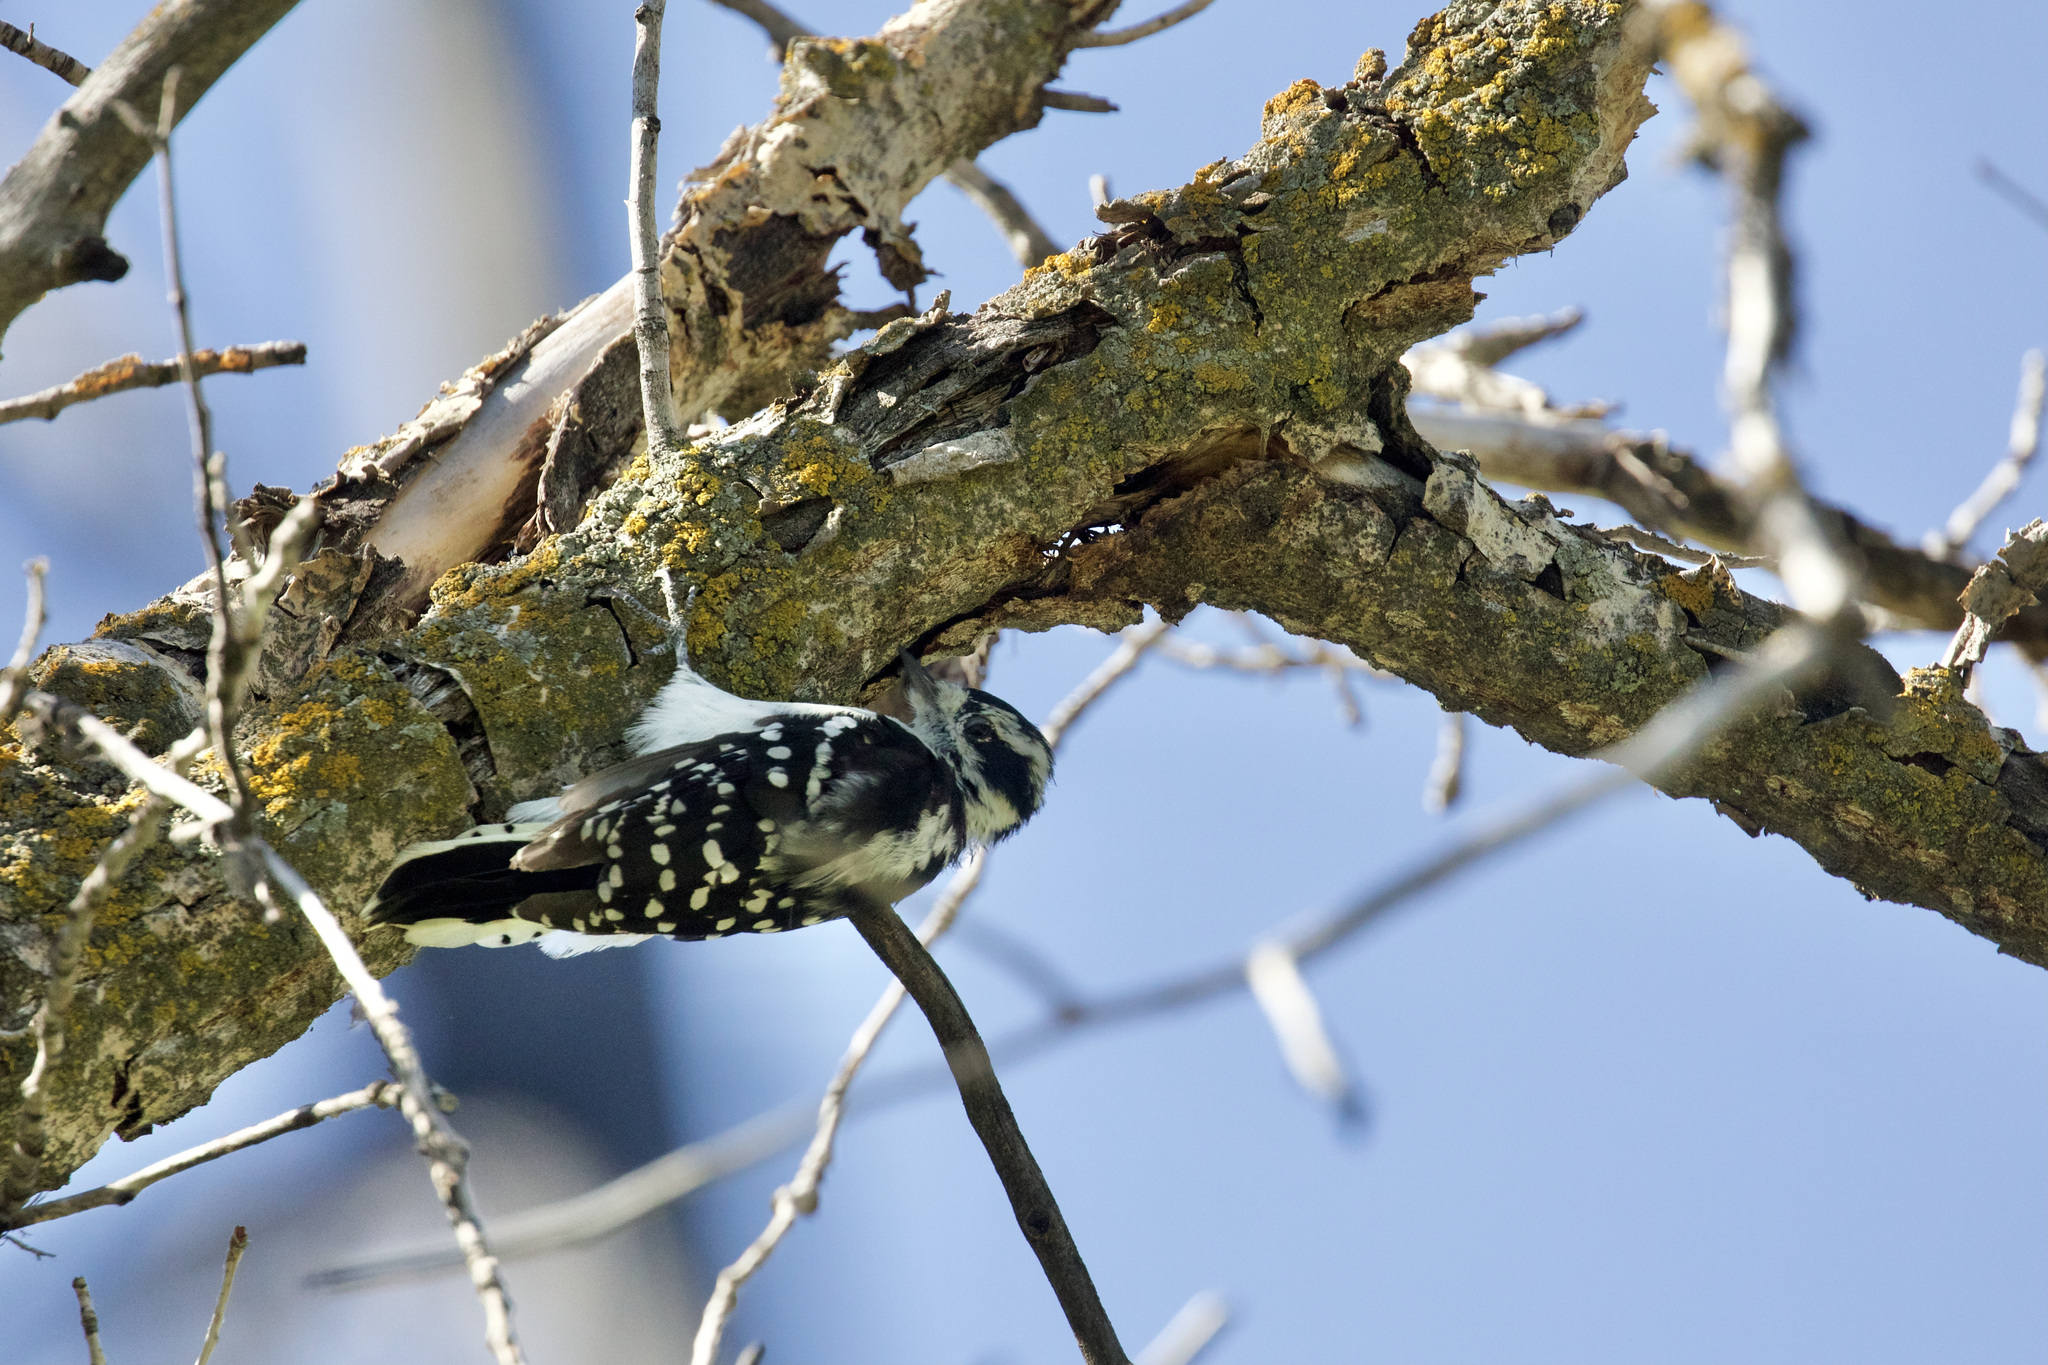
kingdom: Animalia
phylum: Chordata
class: Aves
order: Piciformes
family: Picidae
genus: Dryobates
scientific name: Dryobates pubescens
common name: Downy woodpecker
